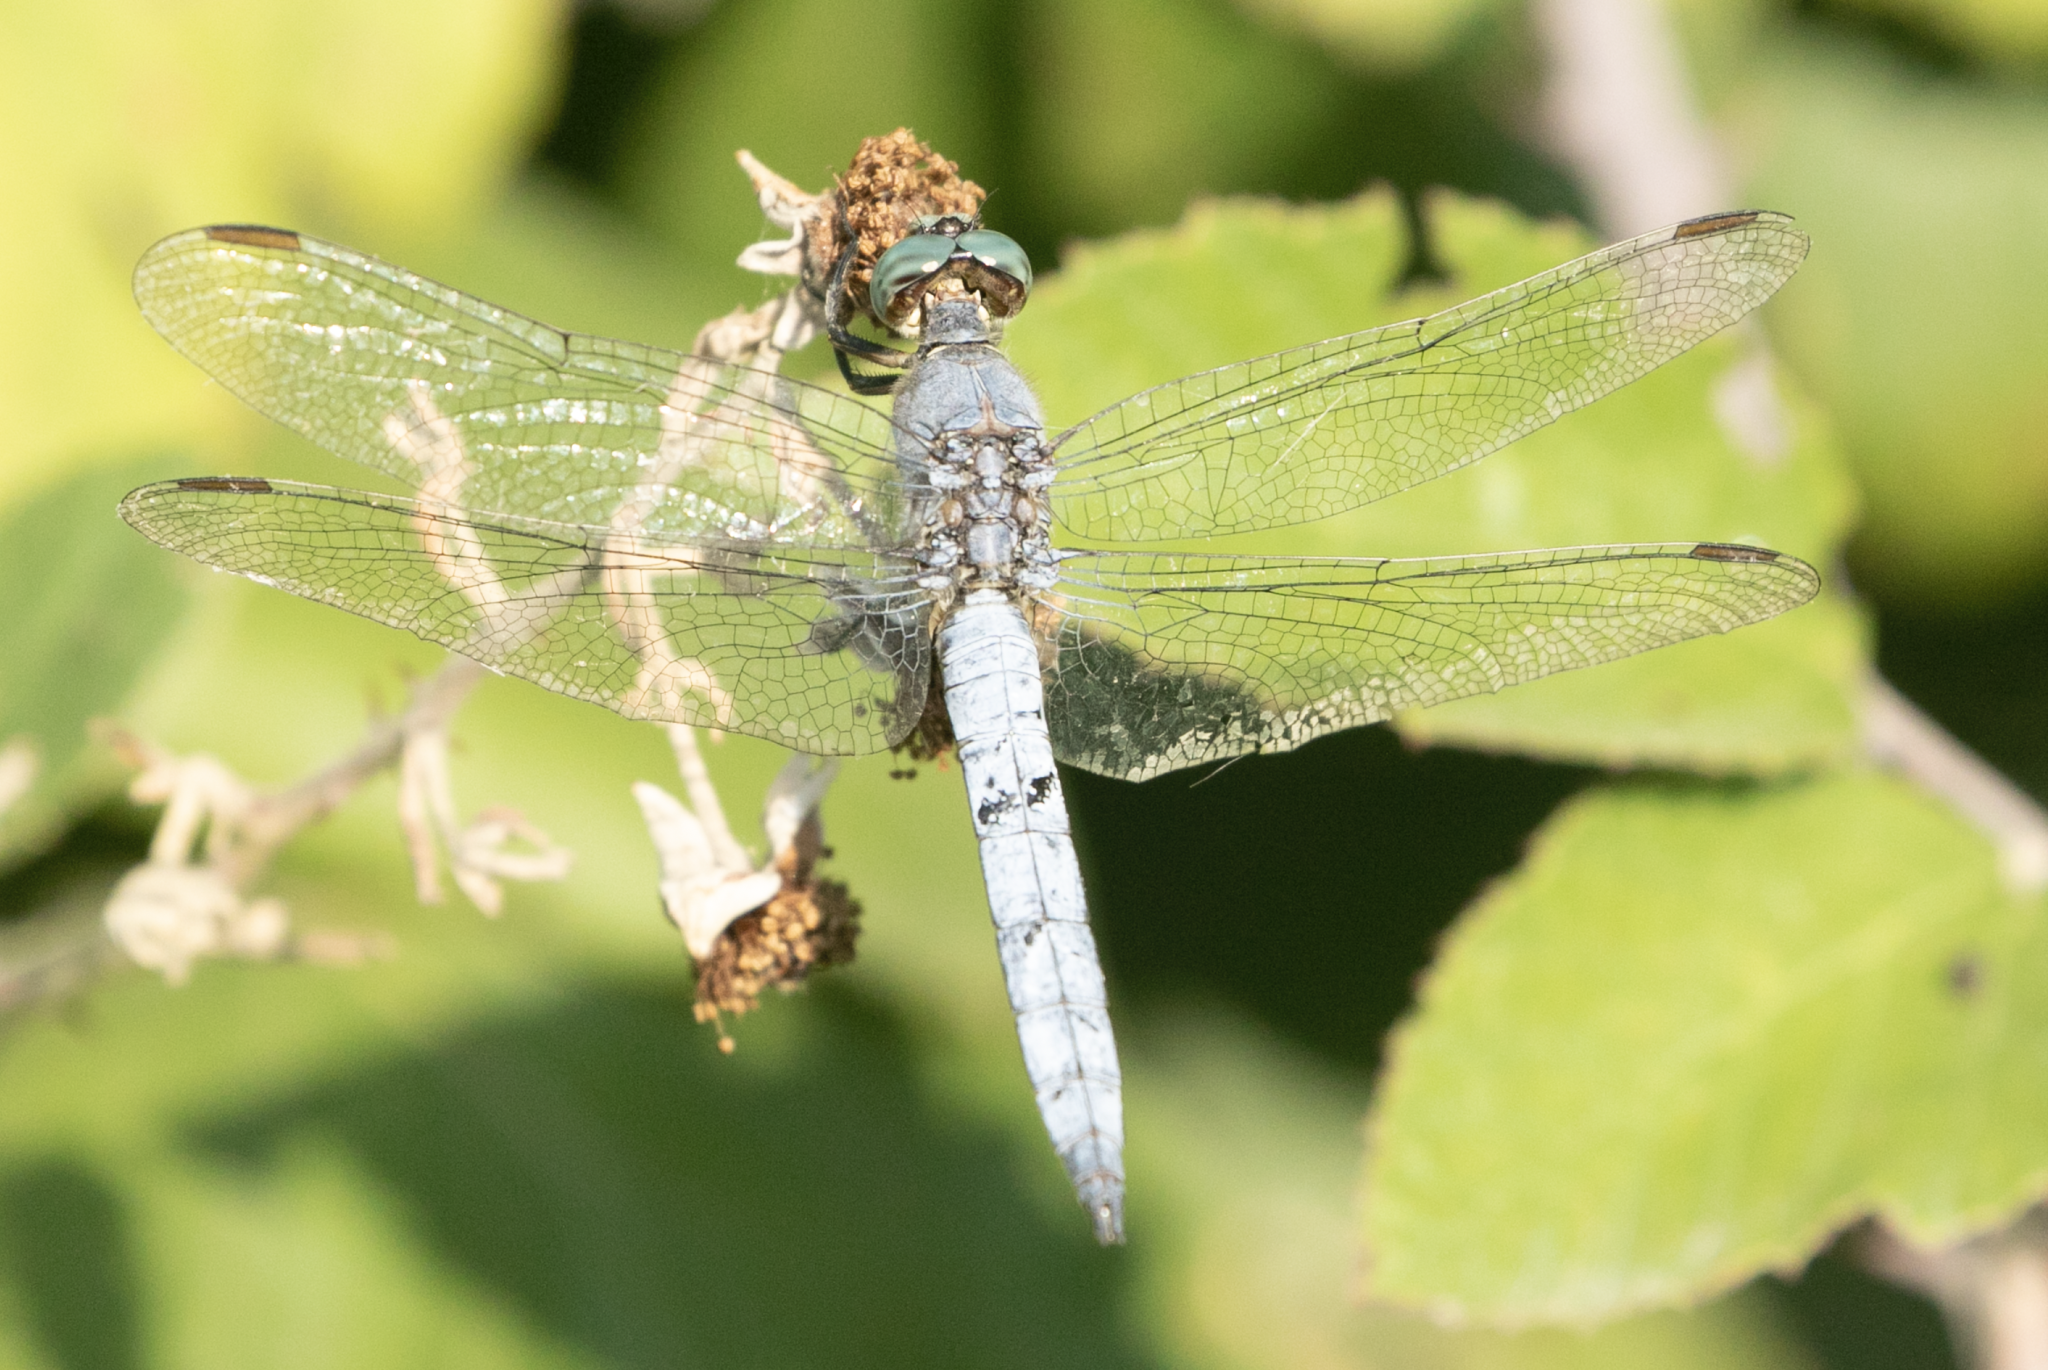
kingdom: Animalia
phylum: Arthropoda
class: Insecta
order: Odonata
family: Libellulidae
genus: Orthetrum
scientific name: Orthetrum coerulescens
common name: Keeled skimmer
